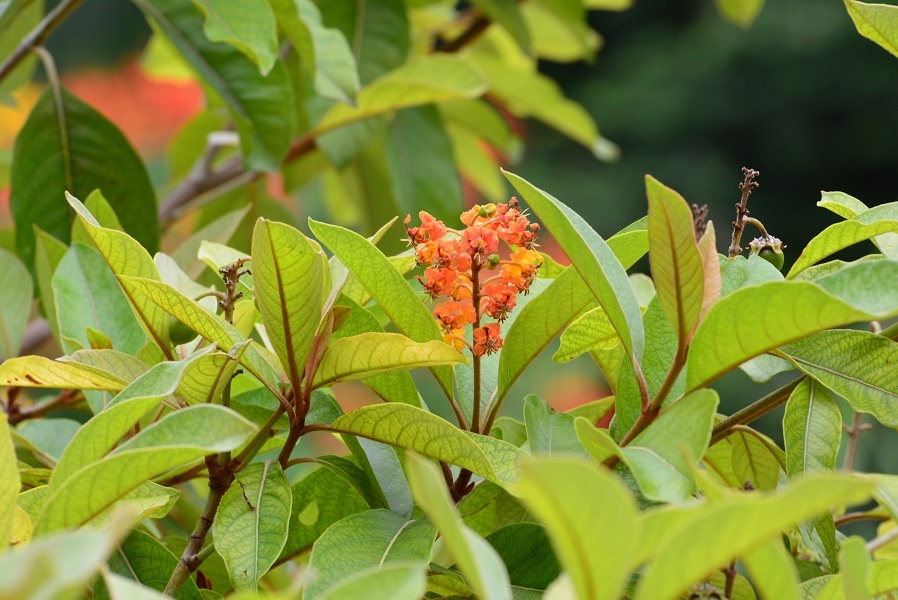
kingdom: Plantae
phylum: Tracheophyta
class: Magnoliopsida
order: Malpighiales
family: Malpighiaceae
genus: Byrsonima
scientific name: Byrsonima crassifolia
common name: Golden spoon
